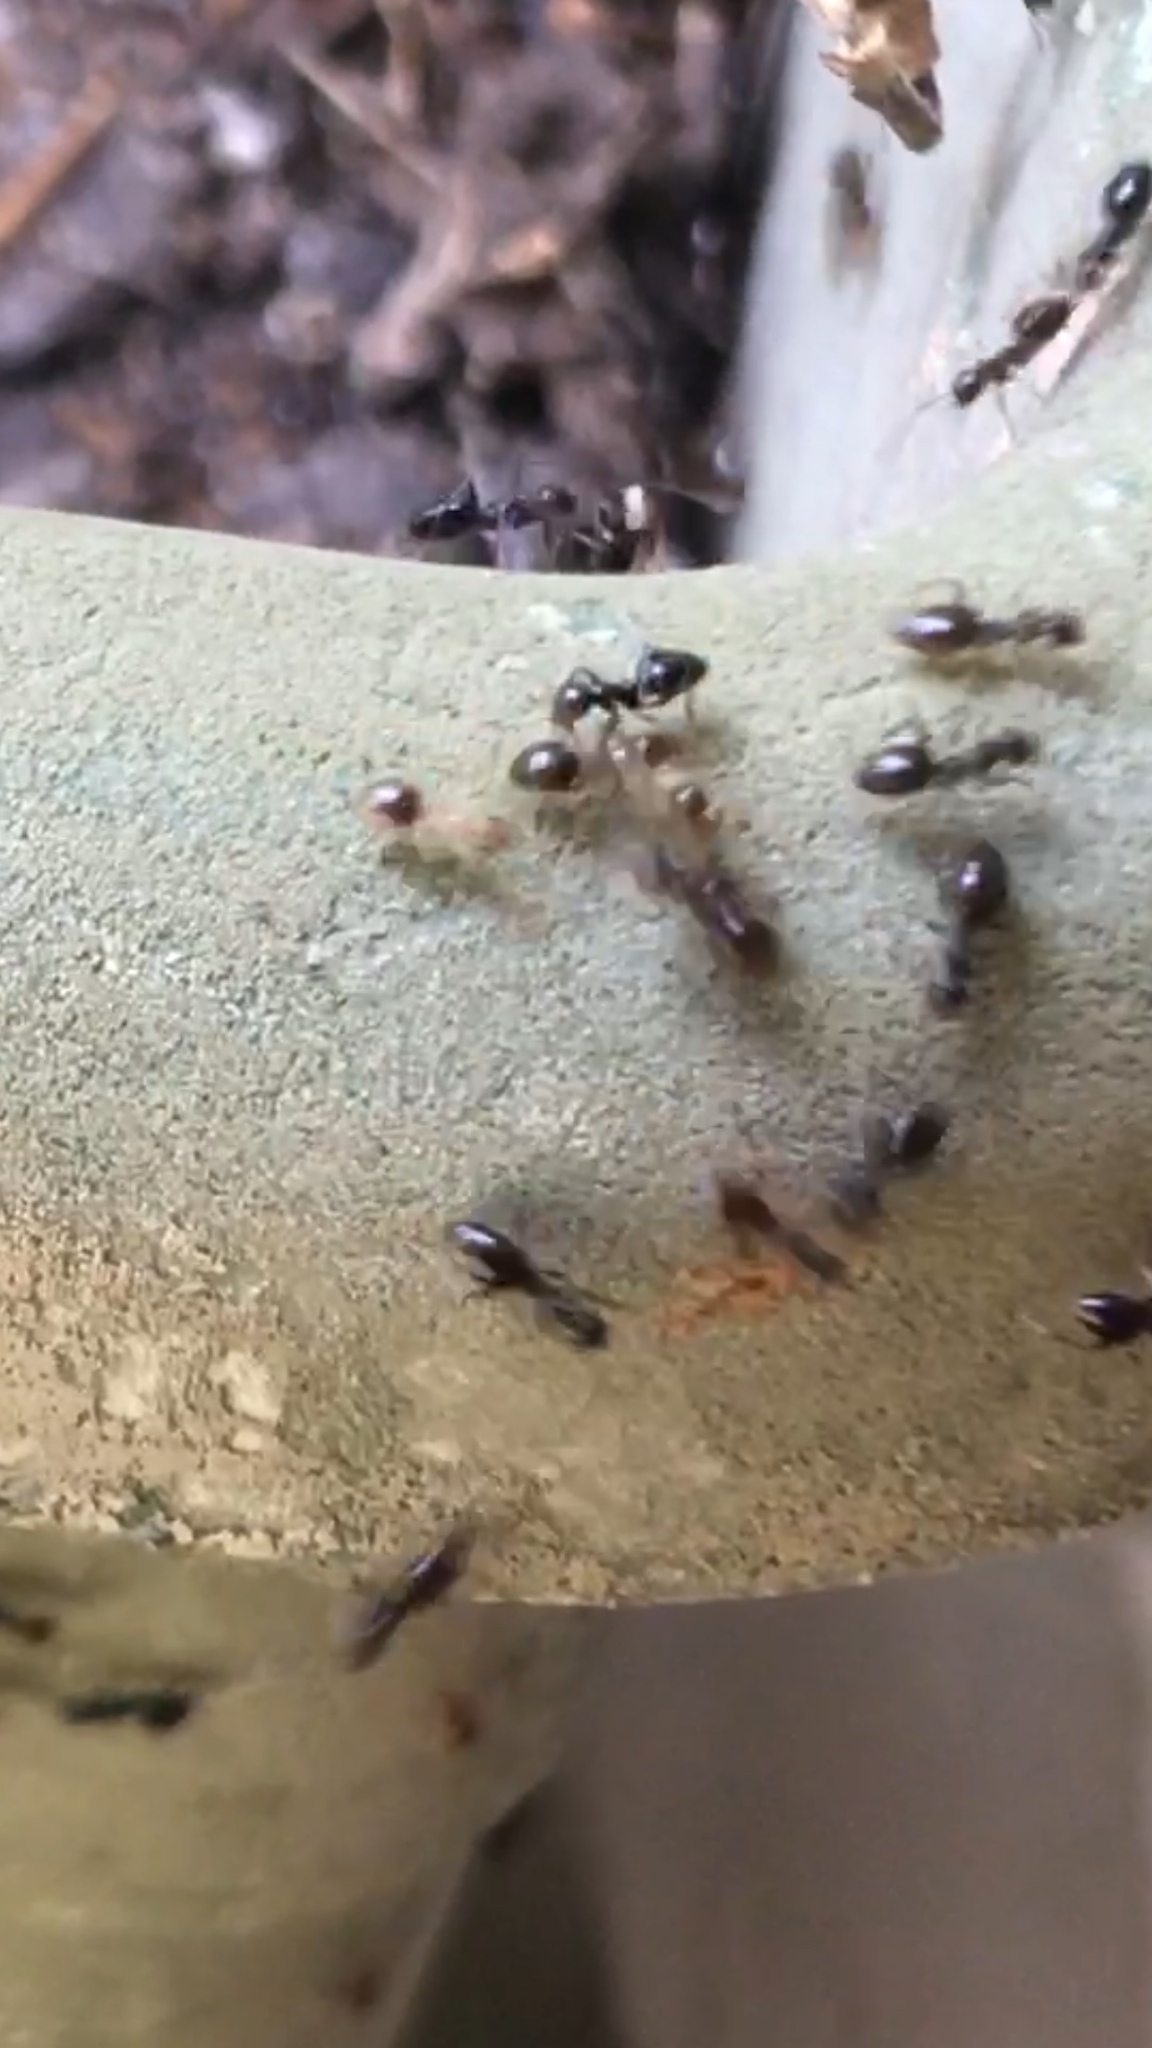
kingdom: Animalia
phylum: Arthropoda
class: Insecta
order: Hymenoptera
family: Formicidae
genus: Lepisiota
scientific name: Lepisiota
